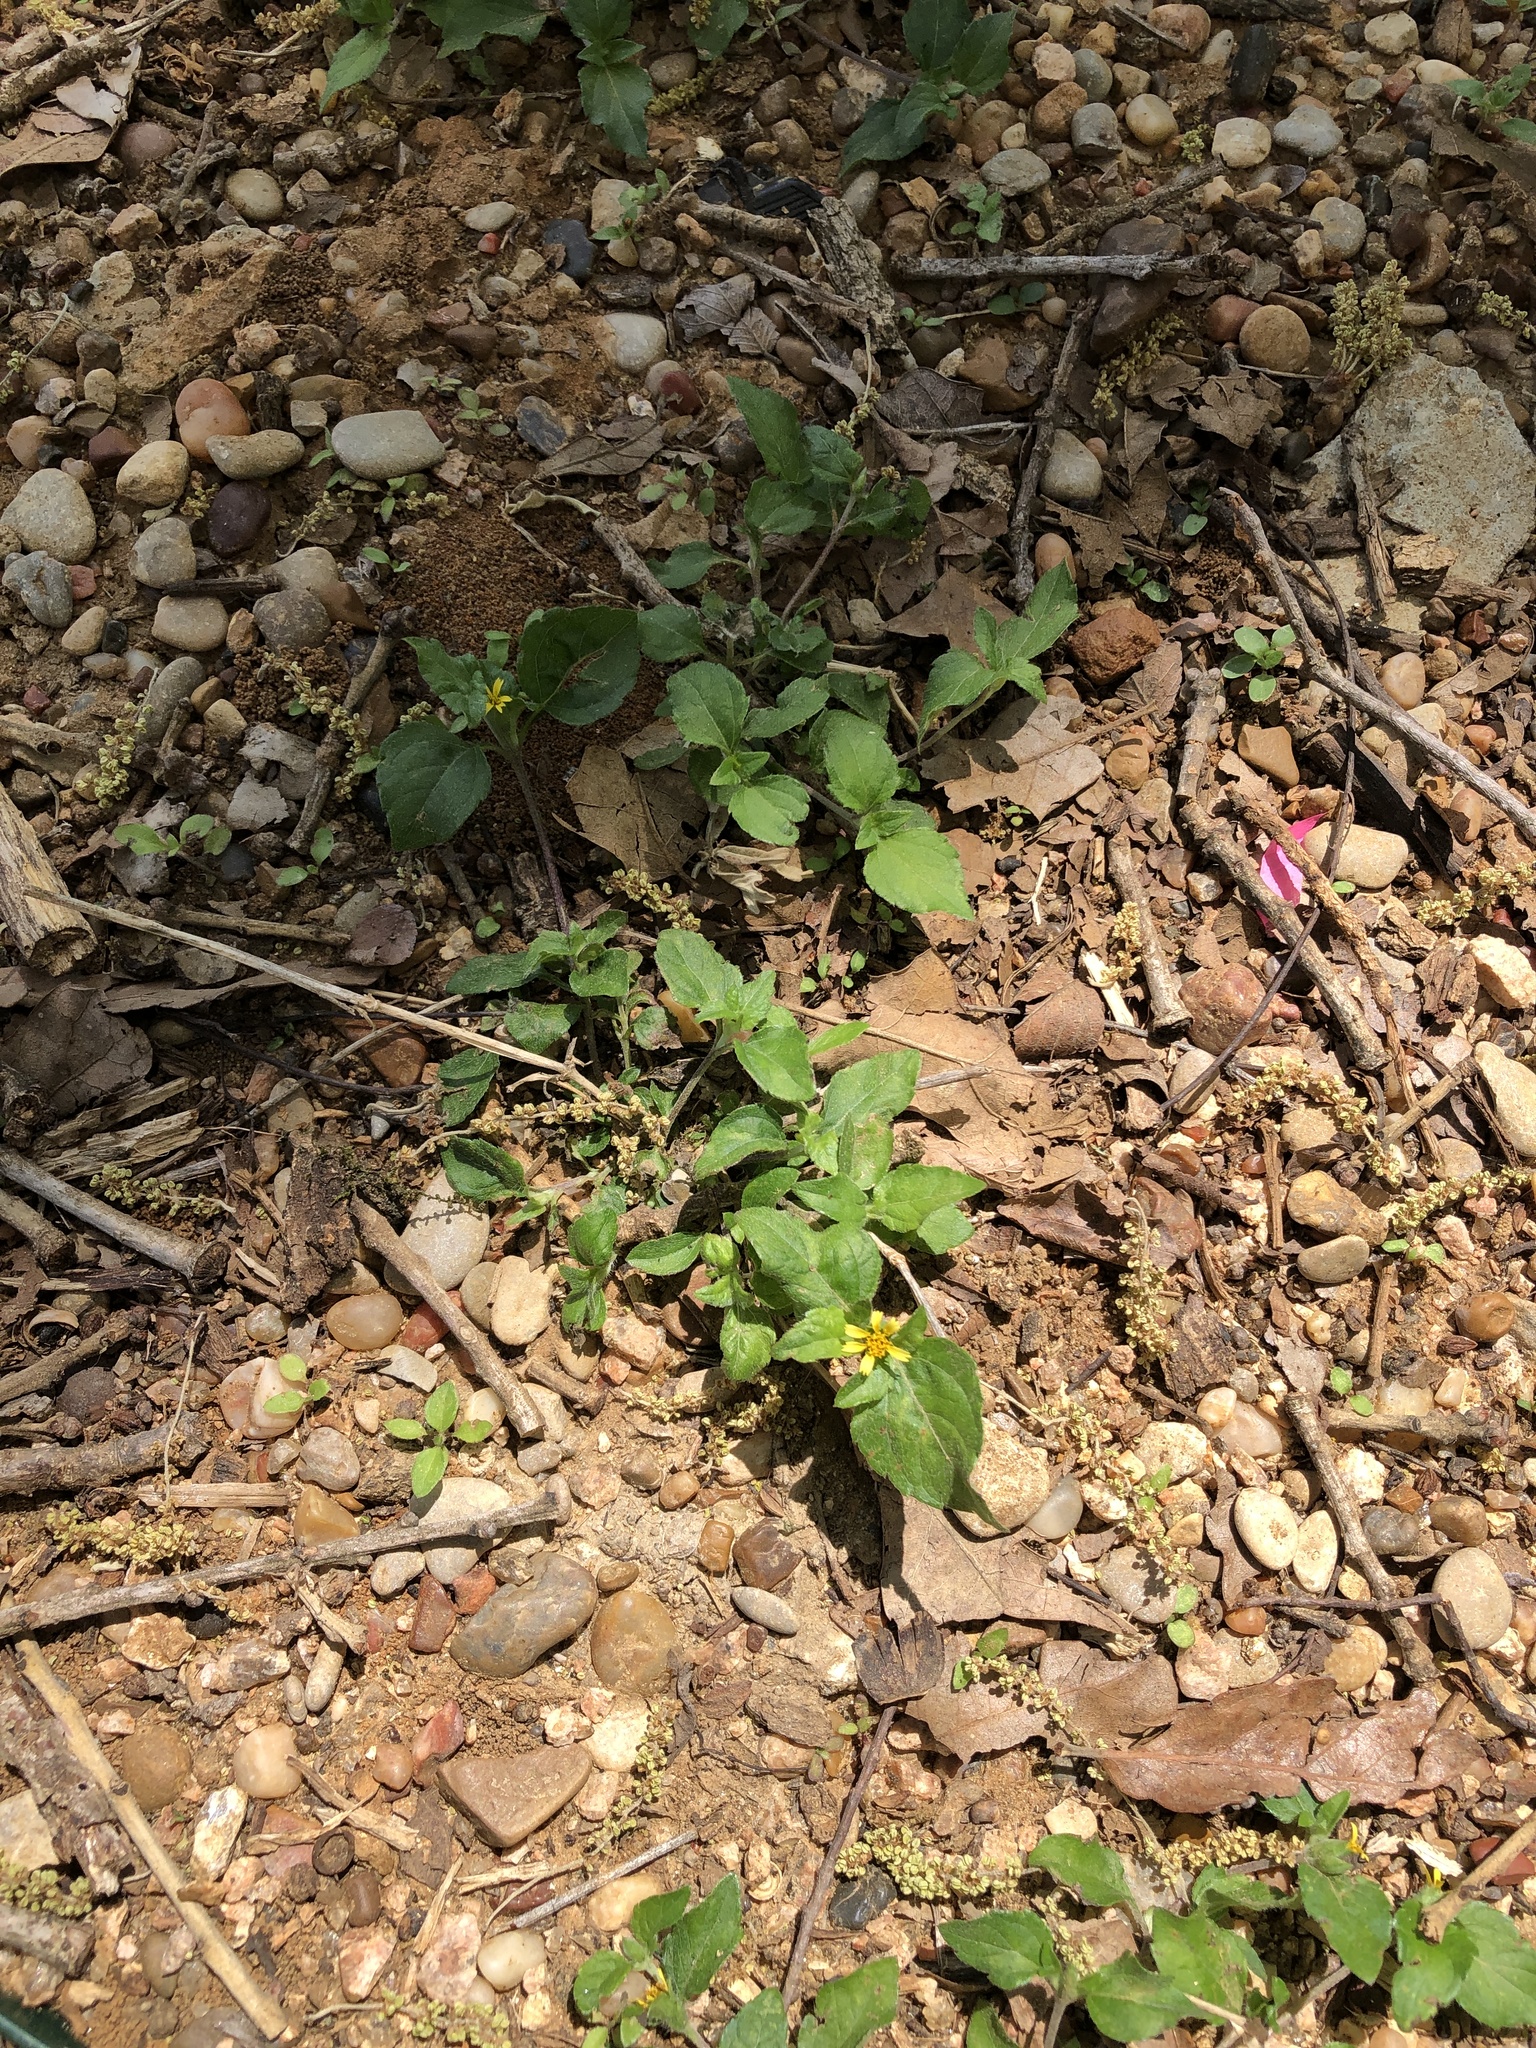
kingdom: Plantae
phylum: Tracheophyta
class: Magnoliopsida
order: Asterales
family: Asteraceae
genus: Calyptocarpus
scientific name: Calyptocarpus vialis
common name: Straggler daisy
